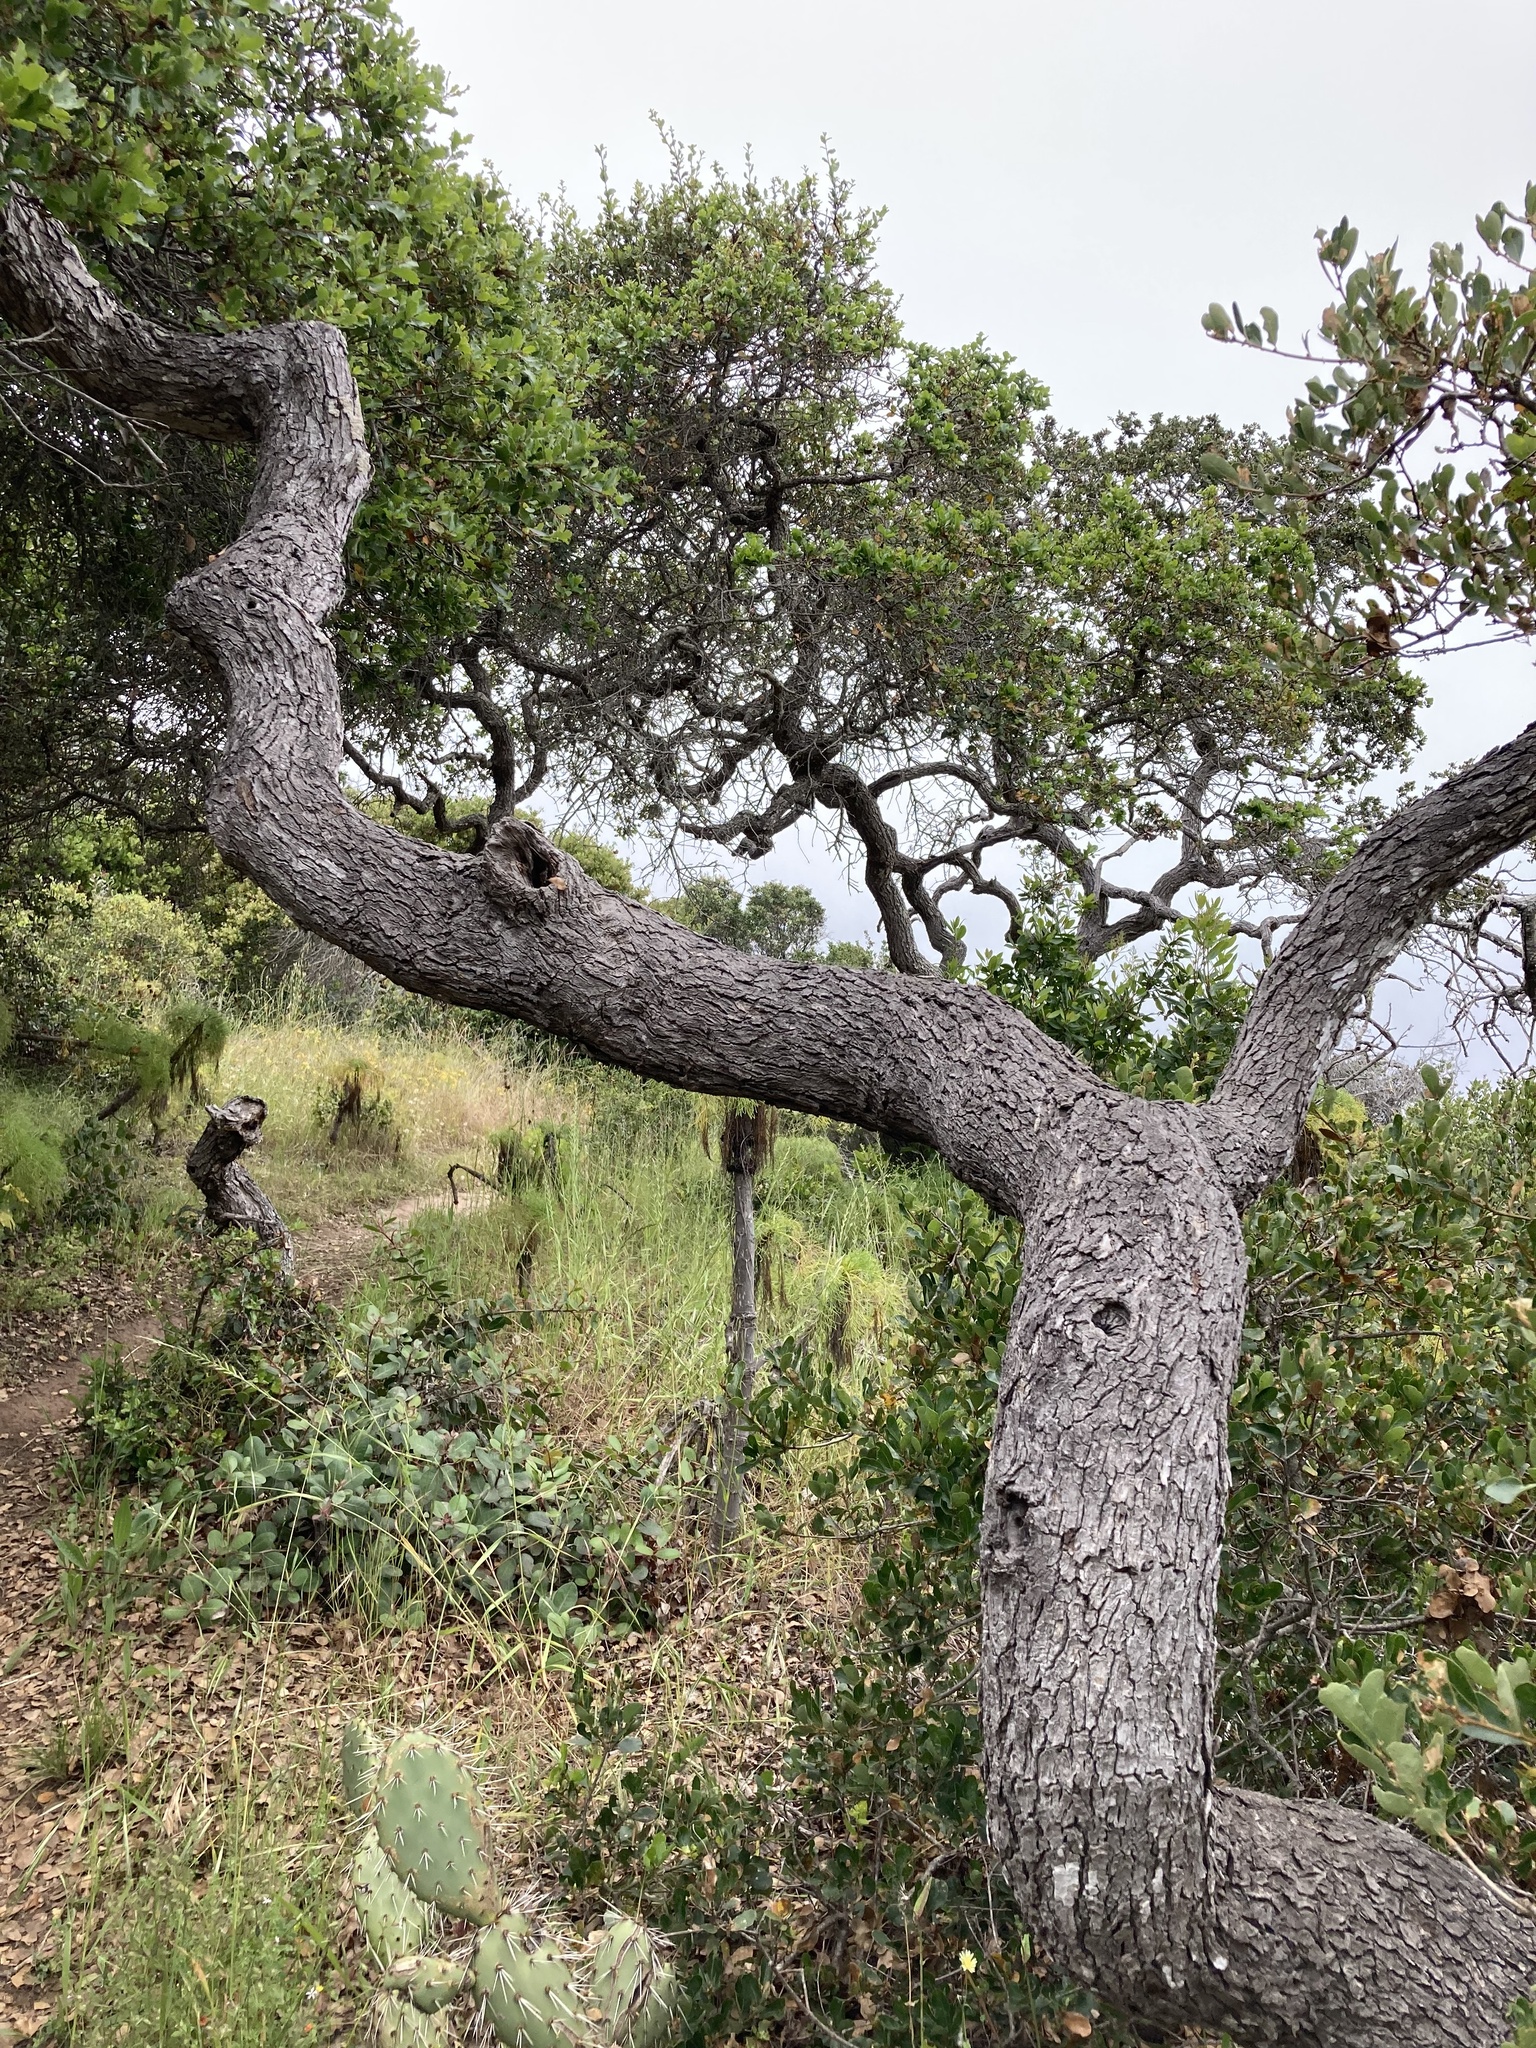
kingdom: Plantae
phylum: Tracheophyta
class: Magnoliopsida
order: Fagales
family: Fagaceae
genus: Quercus
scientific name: Quercus pacifica
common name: Channel island scrub oak
